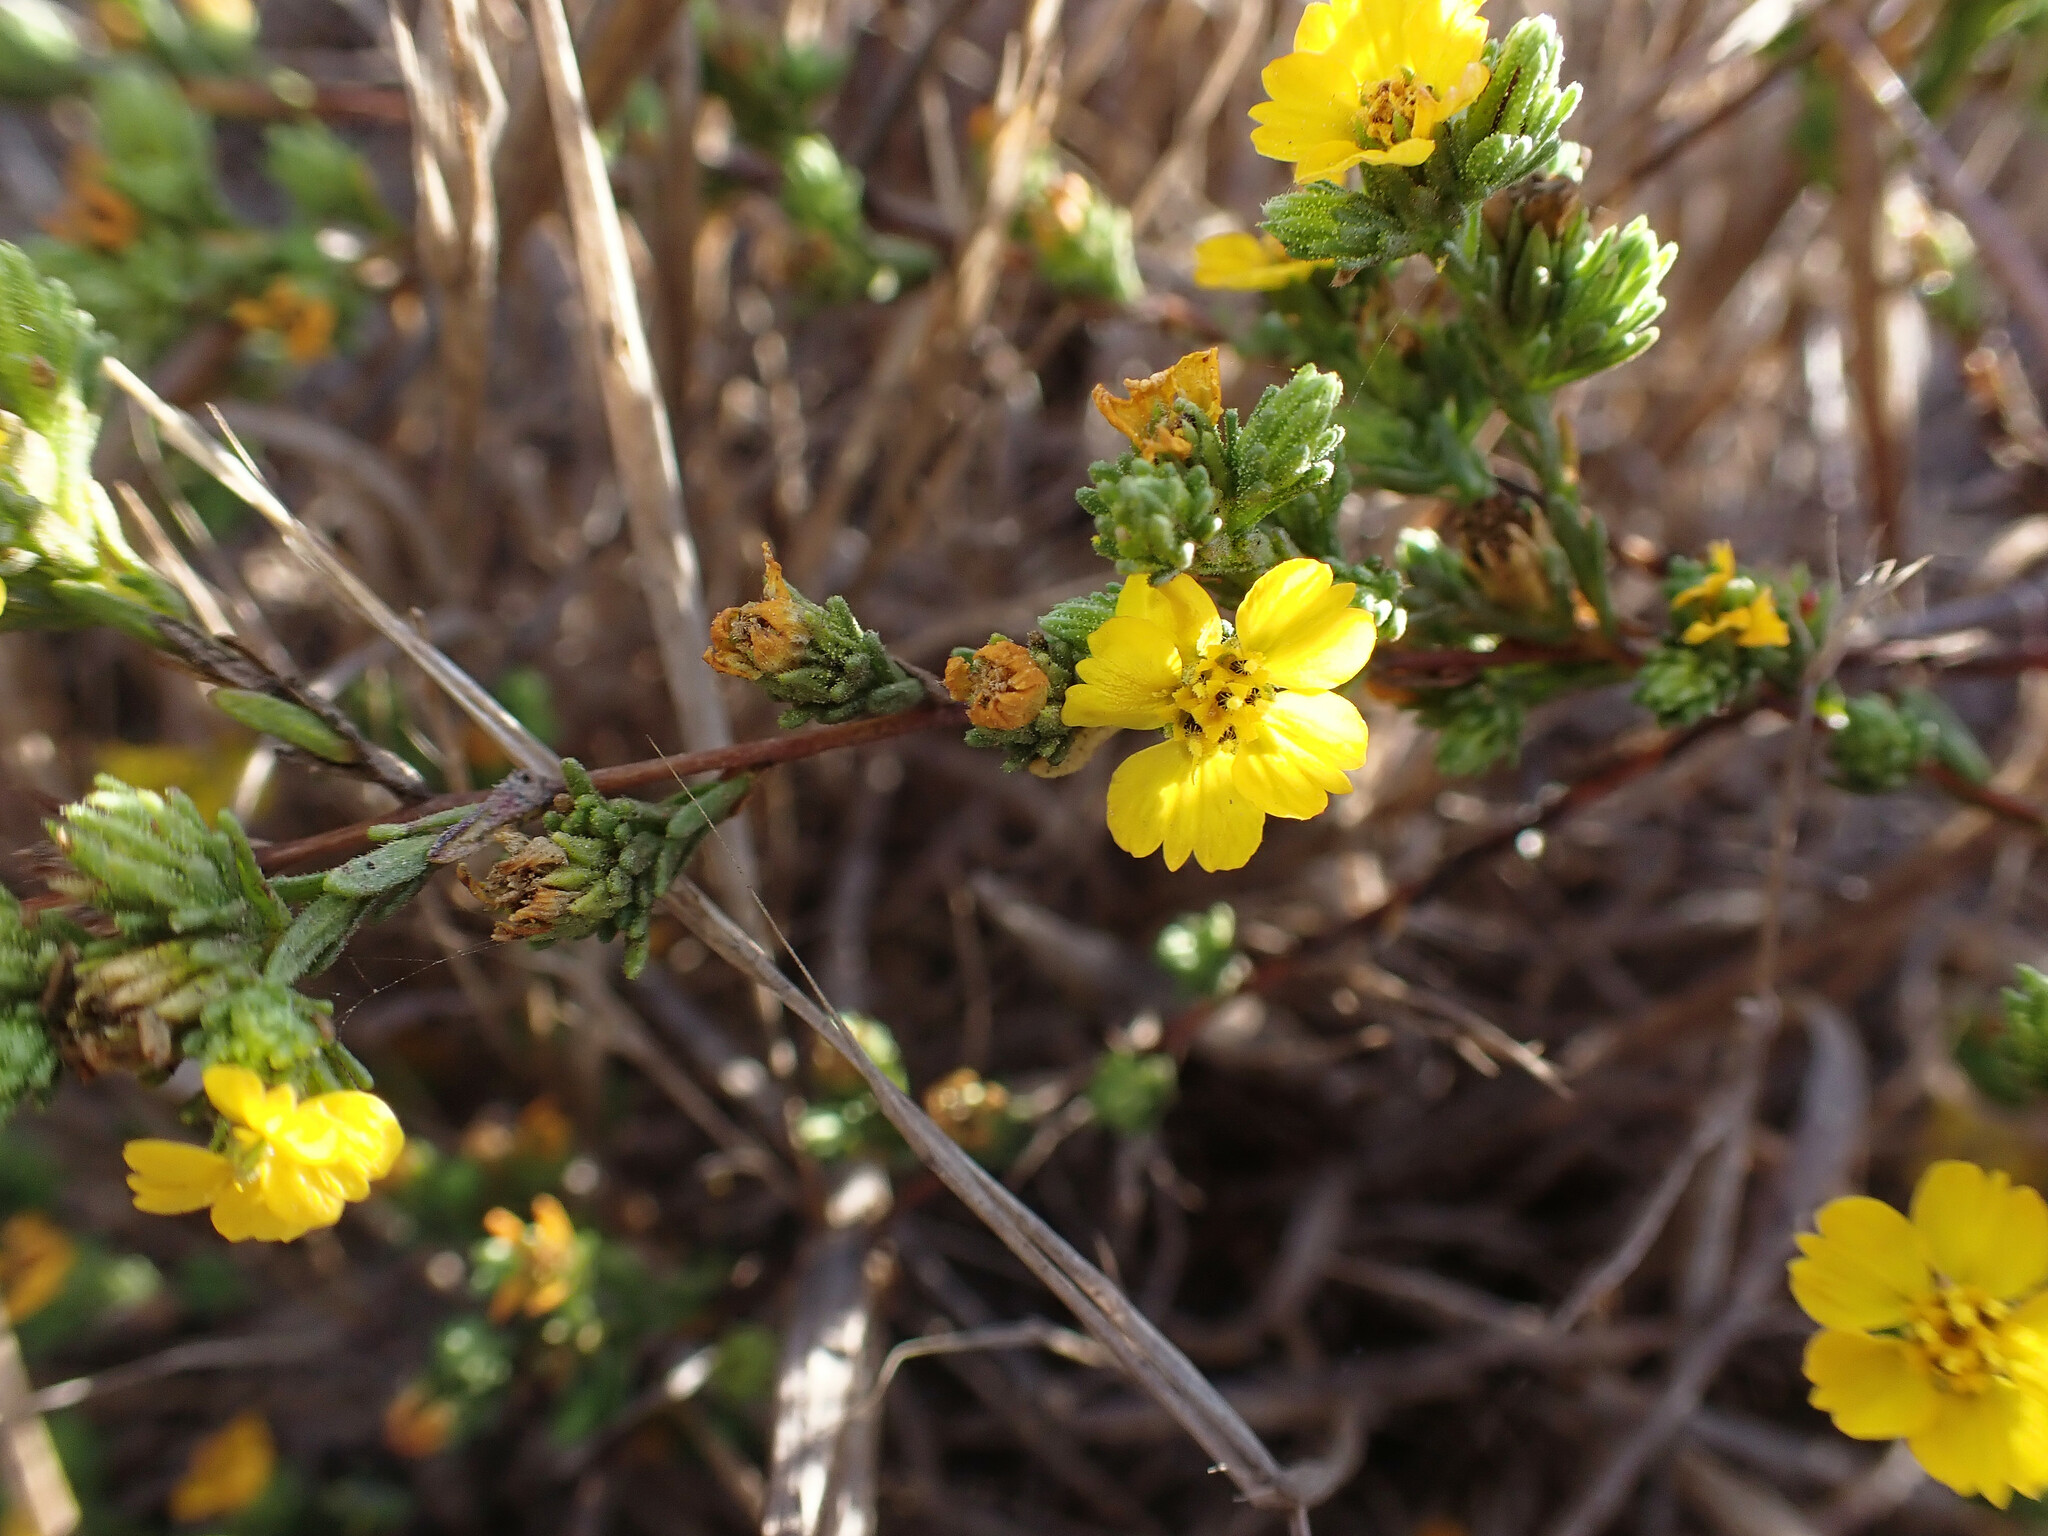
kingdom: Plantae
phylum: Tracheophyta
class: Magnoliopsida
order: Asterales
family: Asteraceae
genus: Deinandra
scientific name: Deinandra fasciculata
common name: Clustered tarweed
